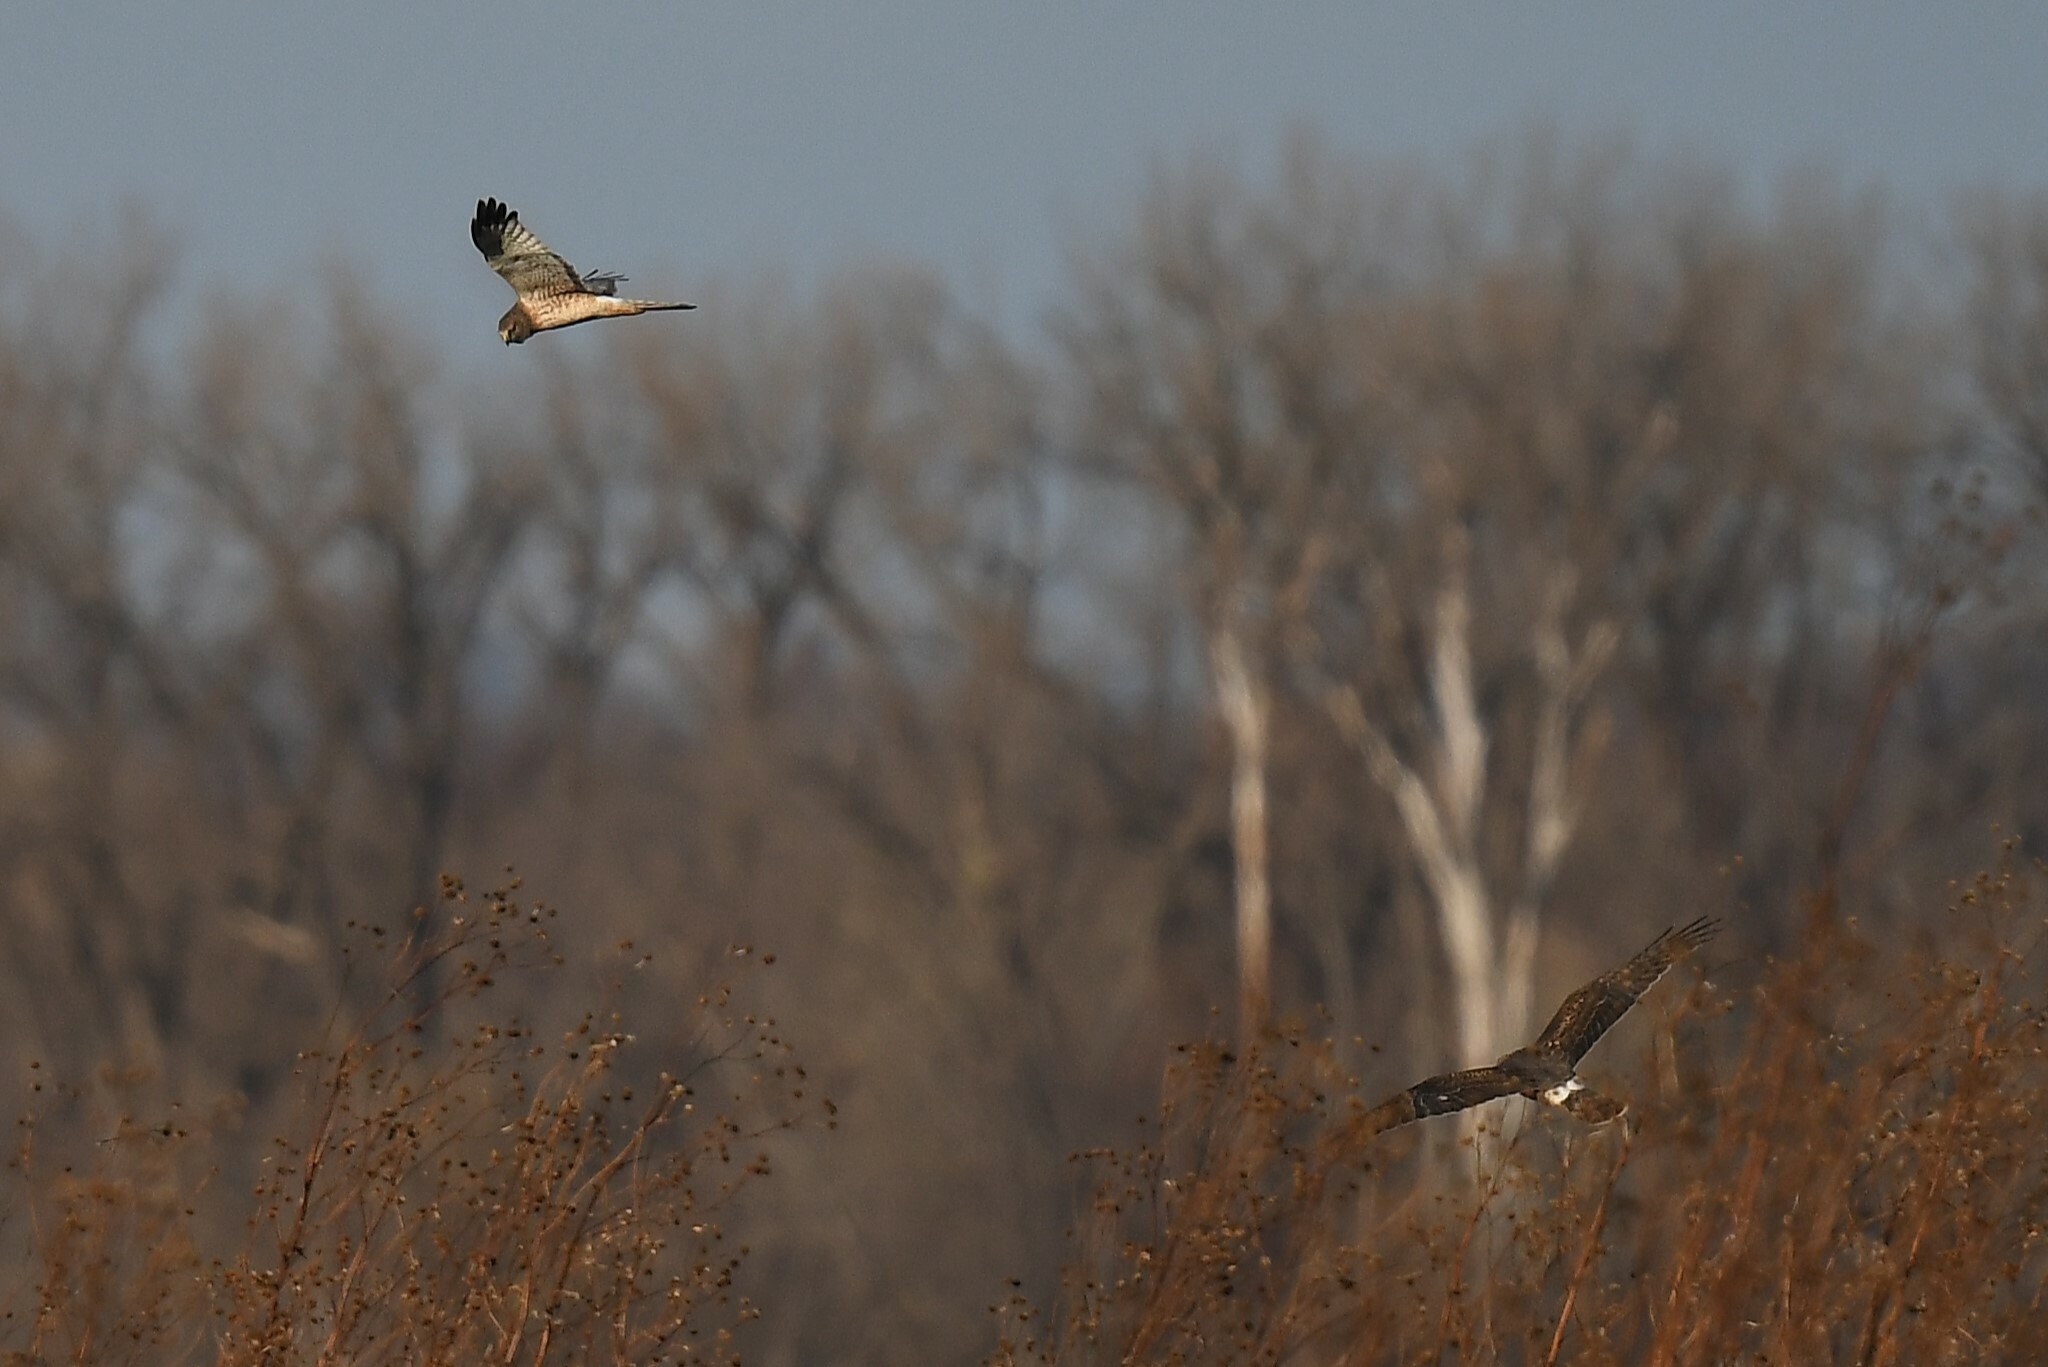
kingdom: Animalia
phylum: Chordata
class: Aves
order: Accipitriformes
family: Accipitridae
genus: Circus
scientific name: Circus cyaneus
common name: Hen harrier
